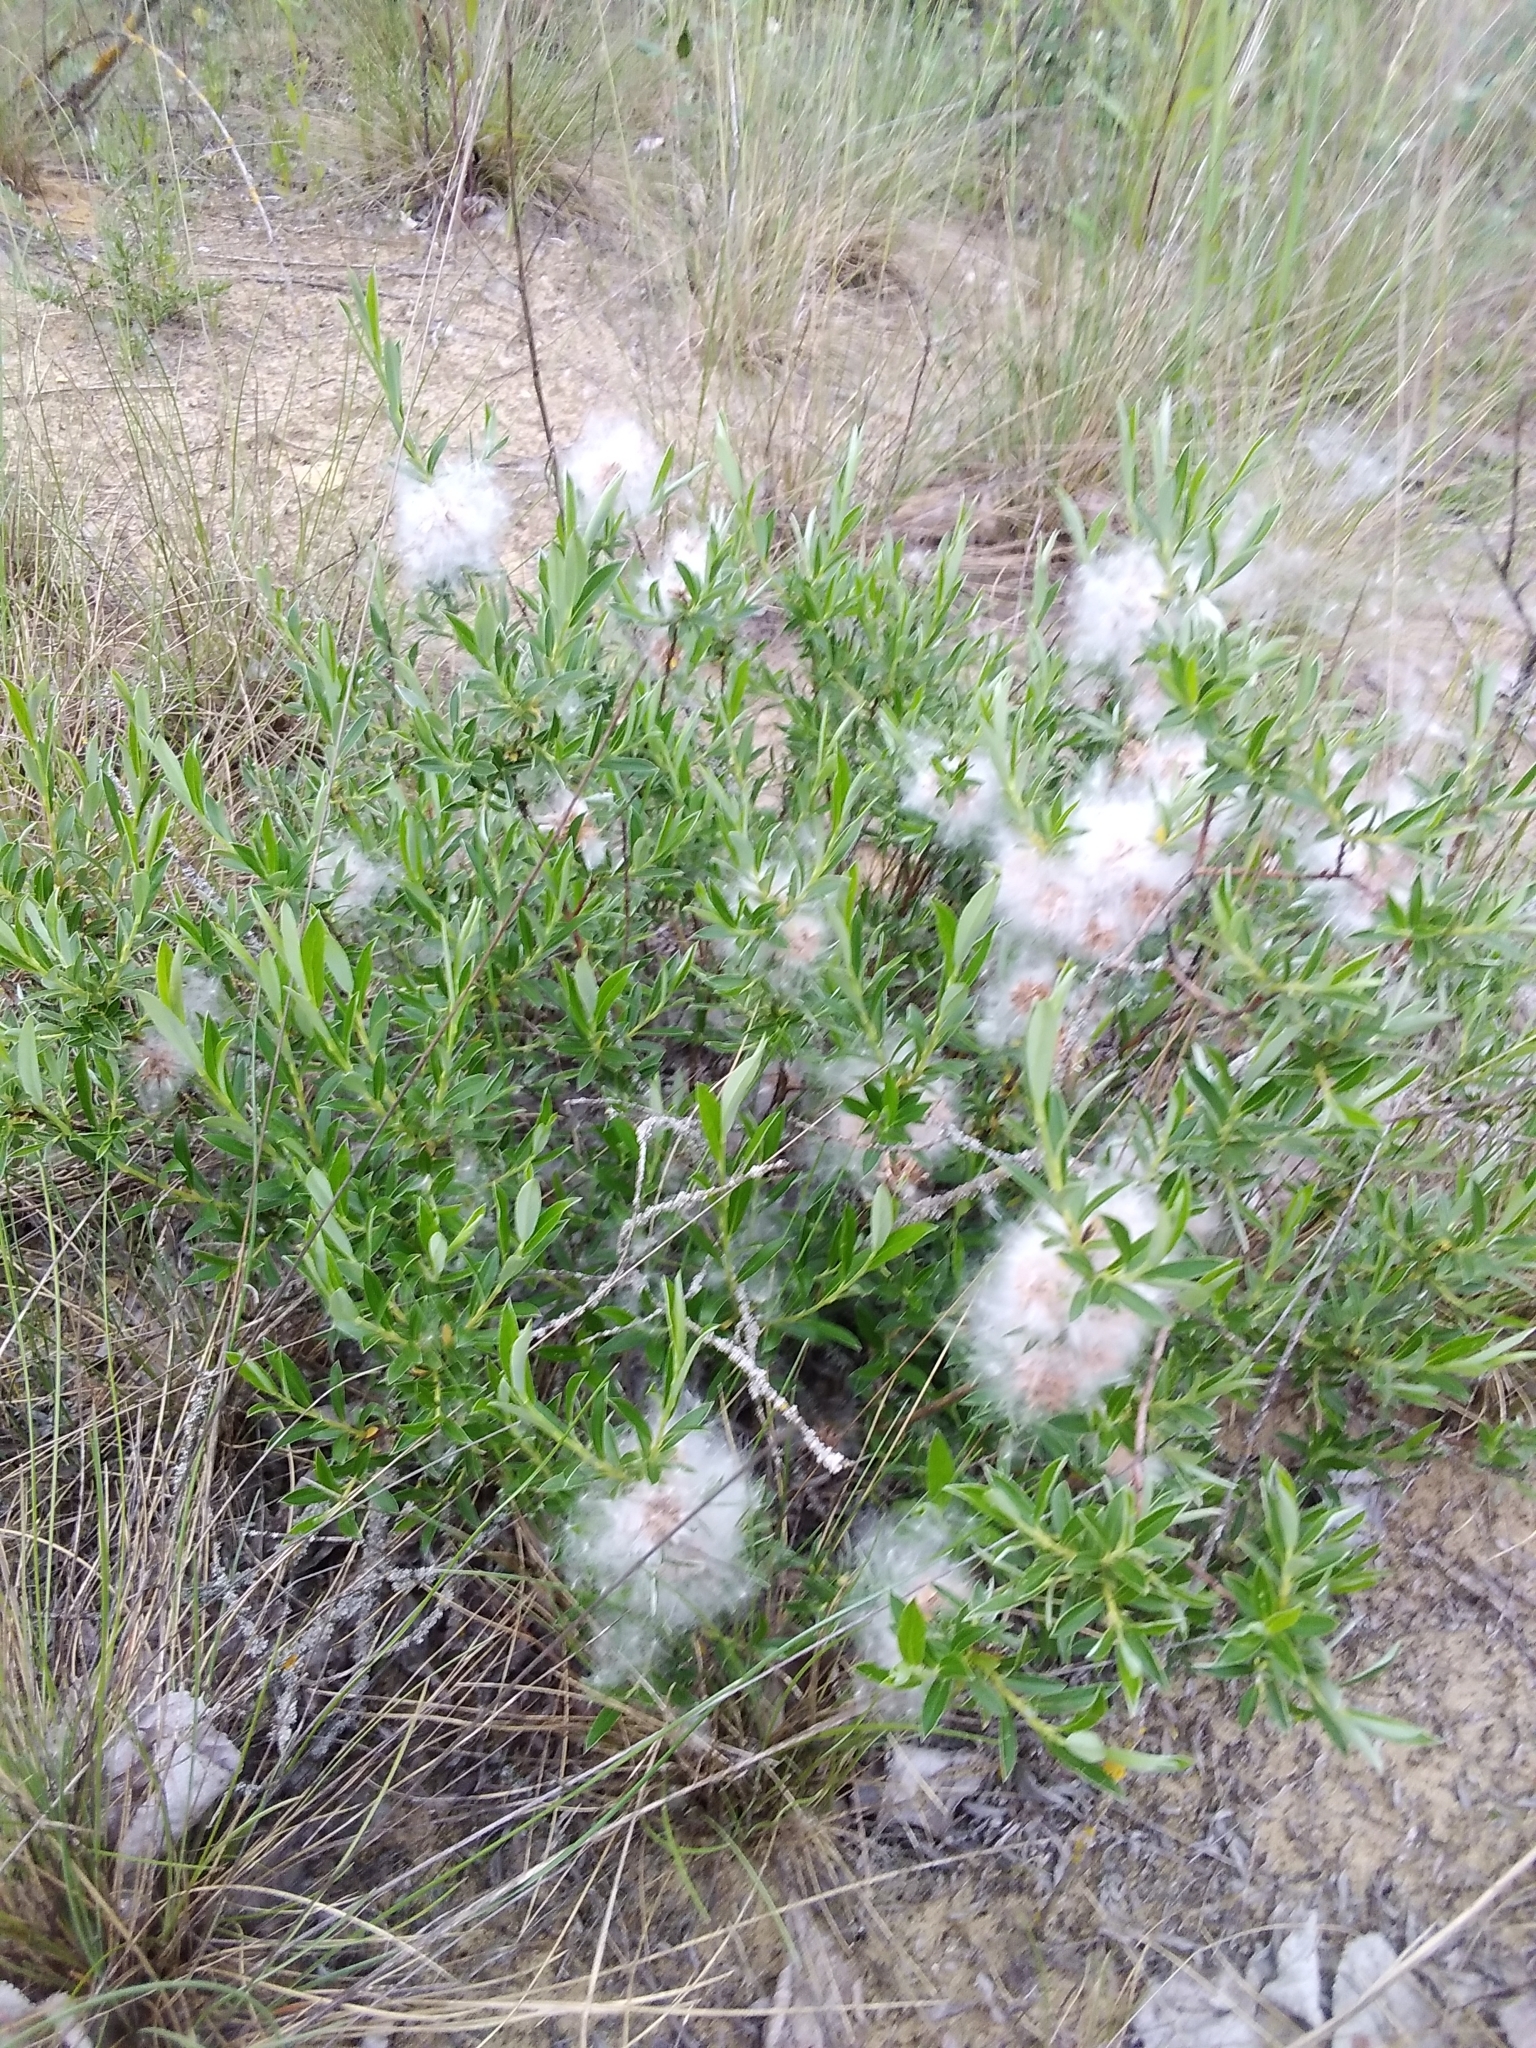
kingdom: Plantae
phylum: Tracheophyta
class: Magnoliopsida
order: Malpighiales
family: Salicaceae
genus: Salix
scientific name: Salix rosmarinifolia
